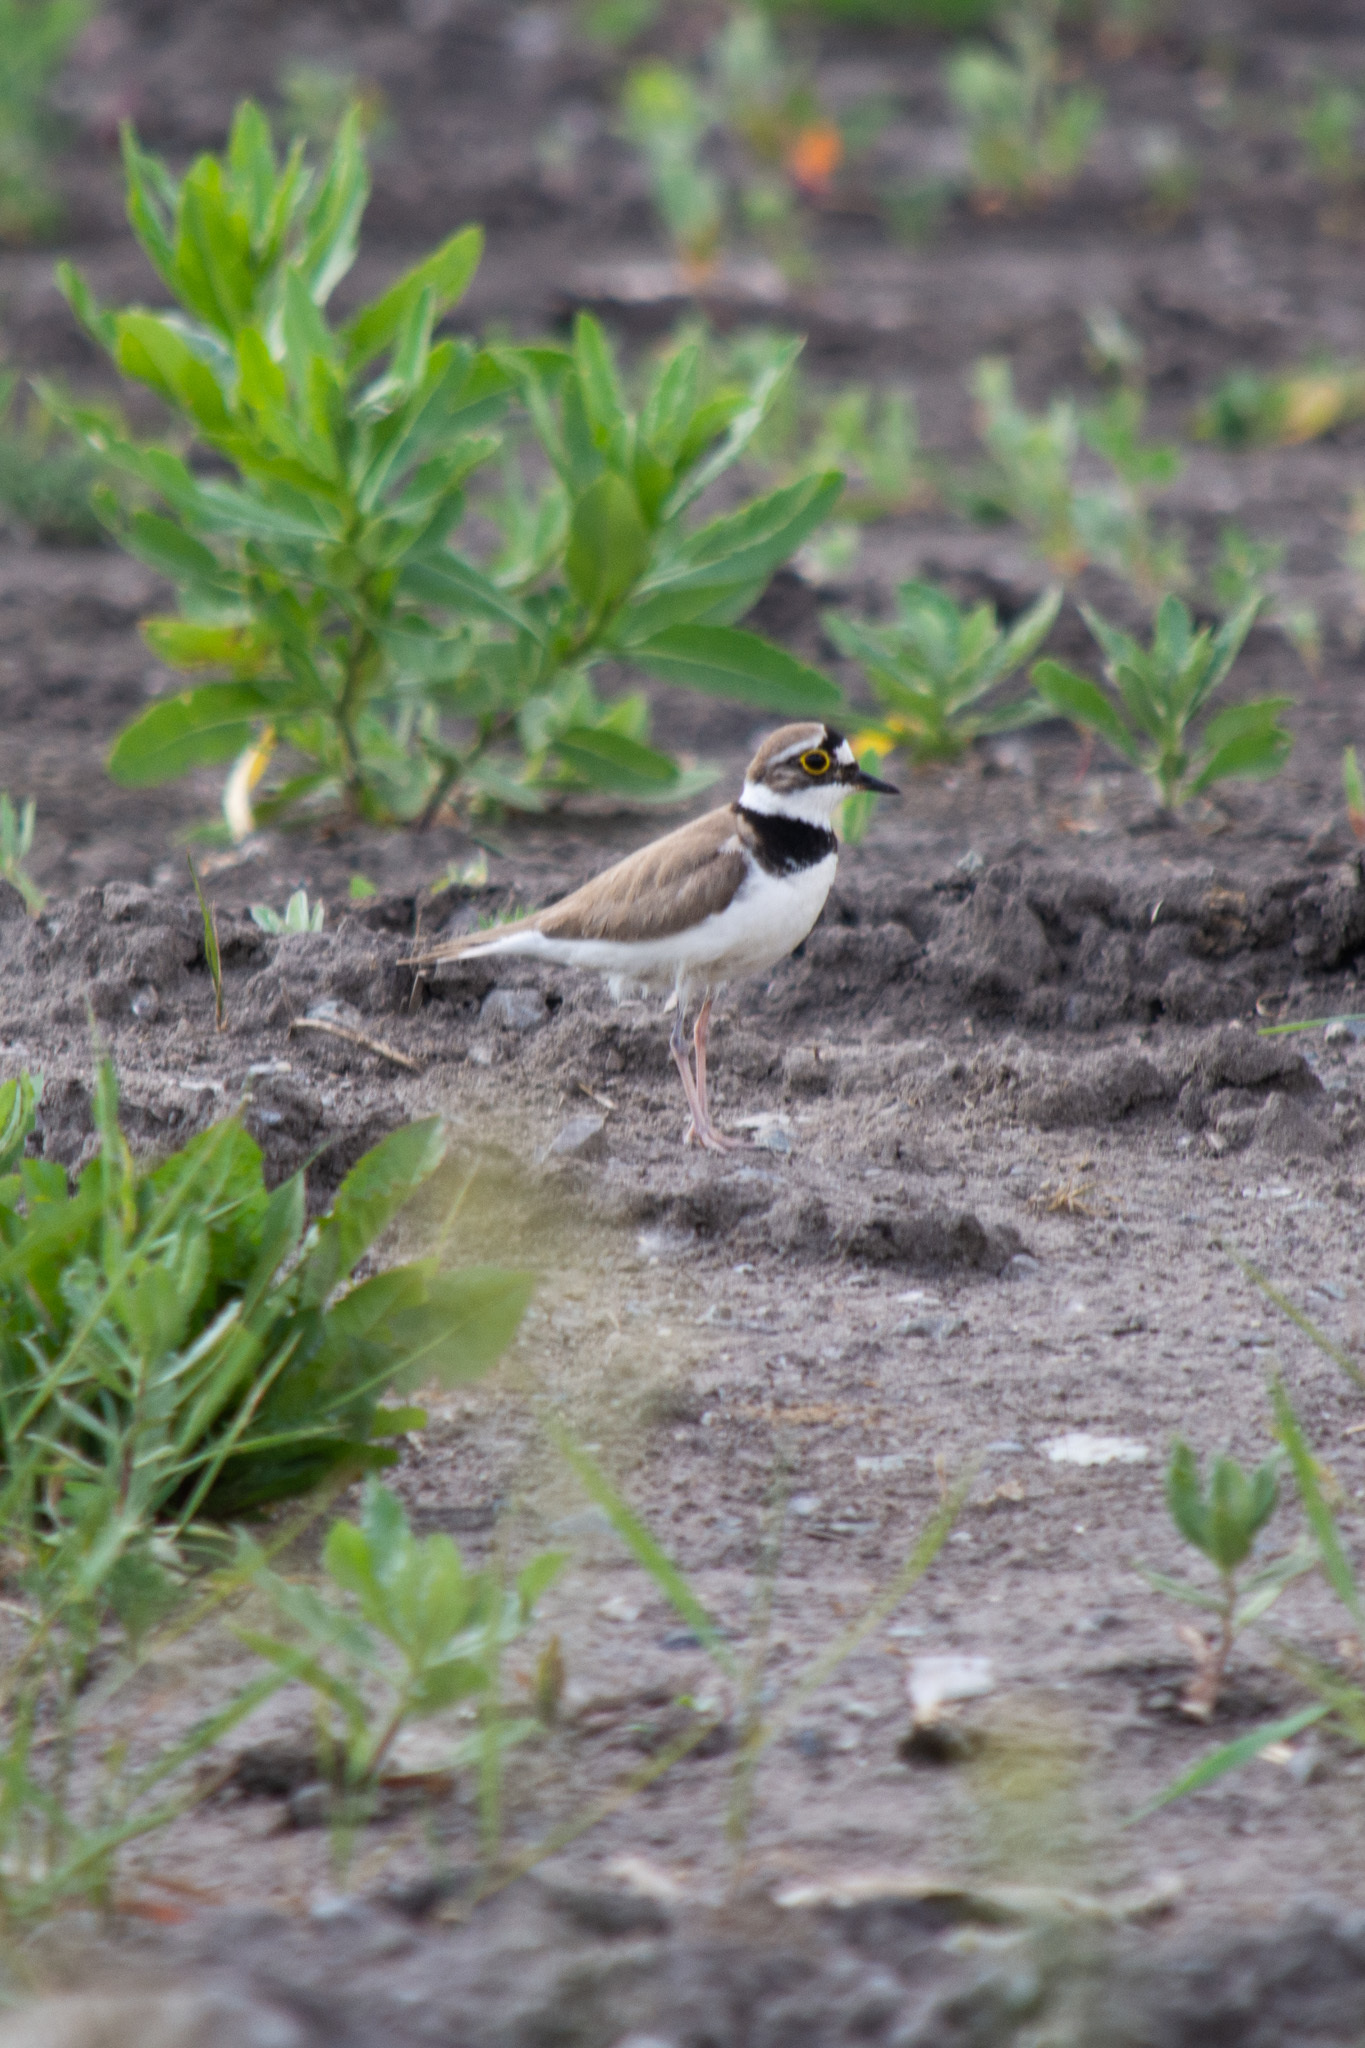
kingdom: Animalia
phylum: Chordata
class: Aves
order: Charadriiformes
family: Charadriidae
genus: Charadrius
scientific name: Charadrius dubius
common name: Little ringed plover
